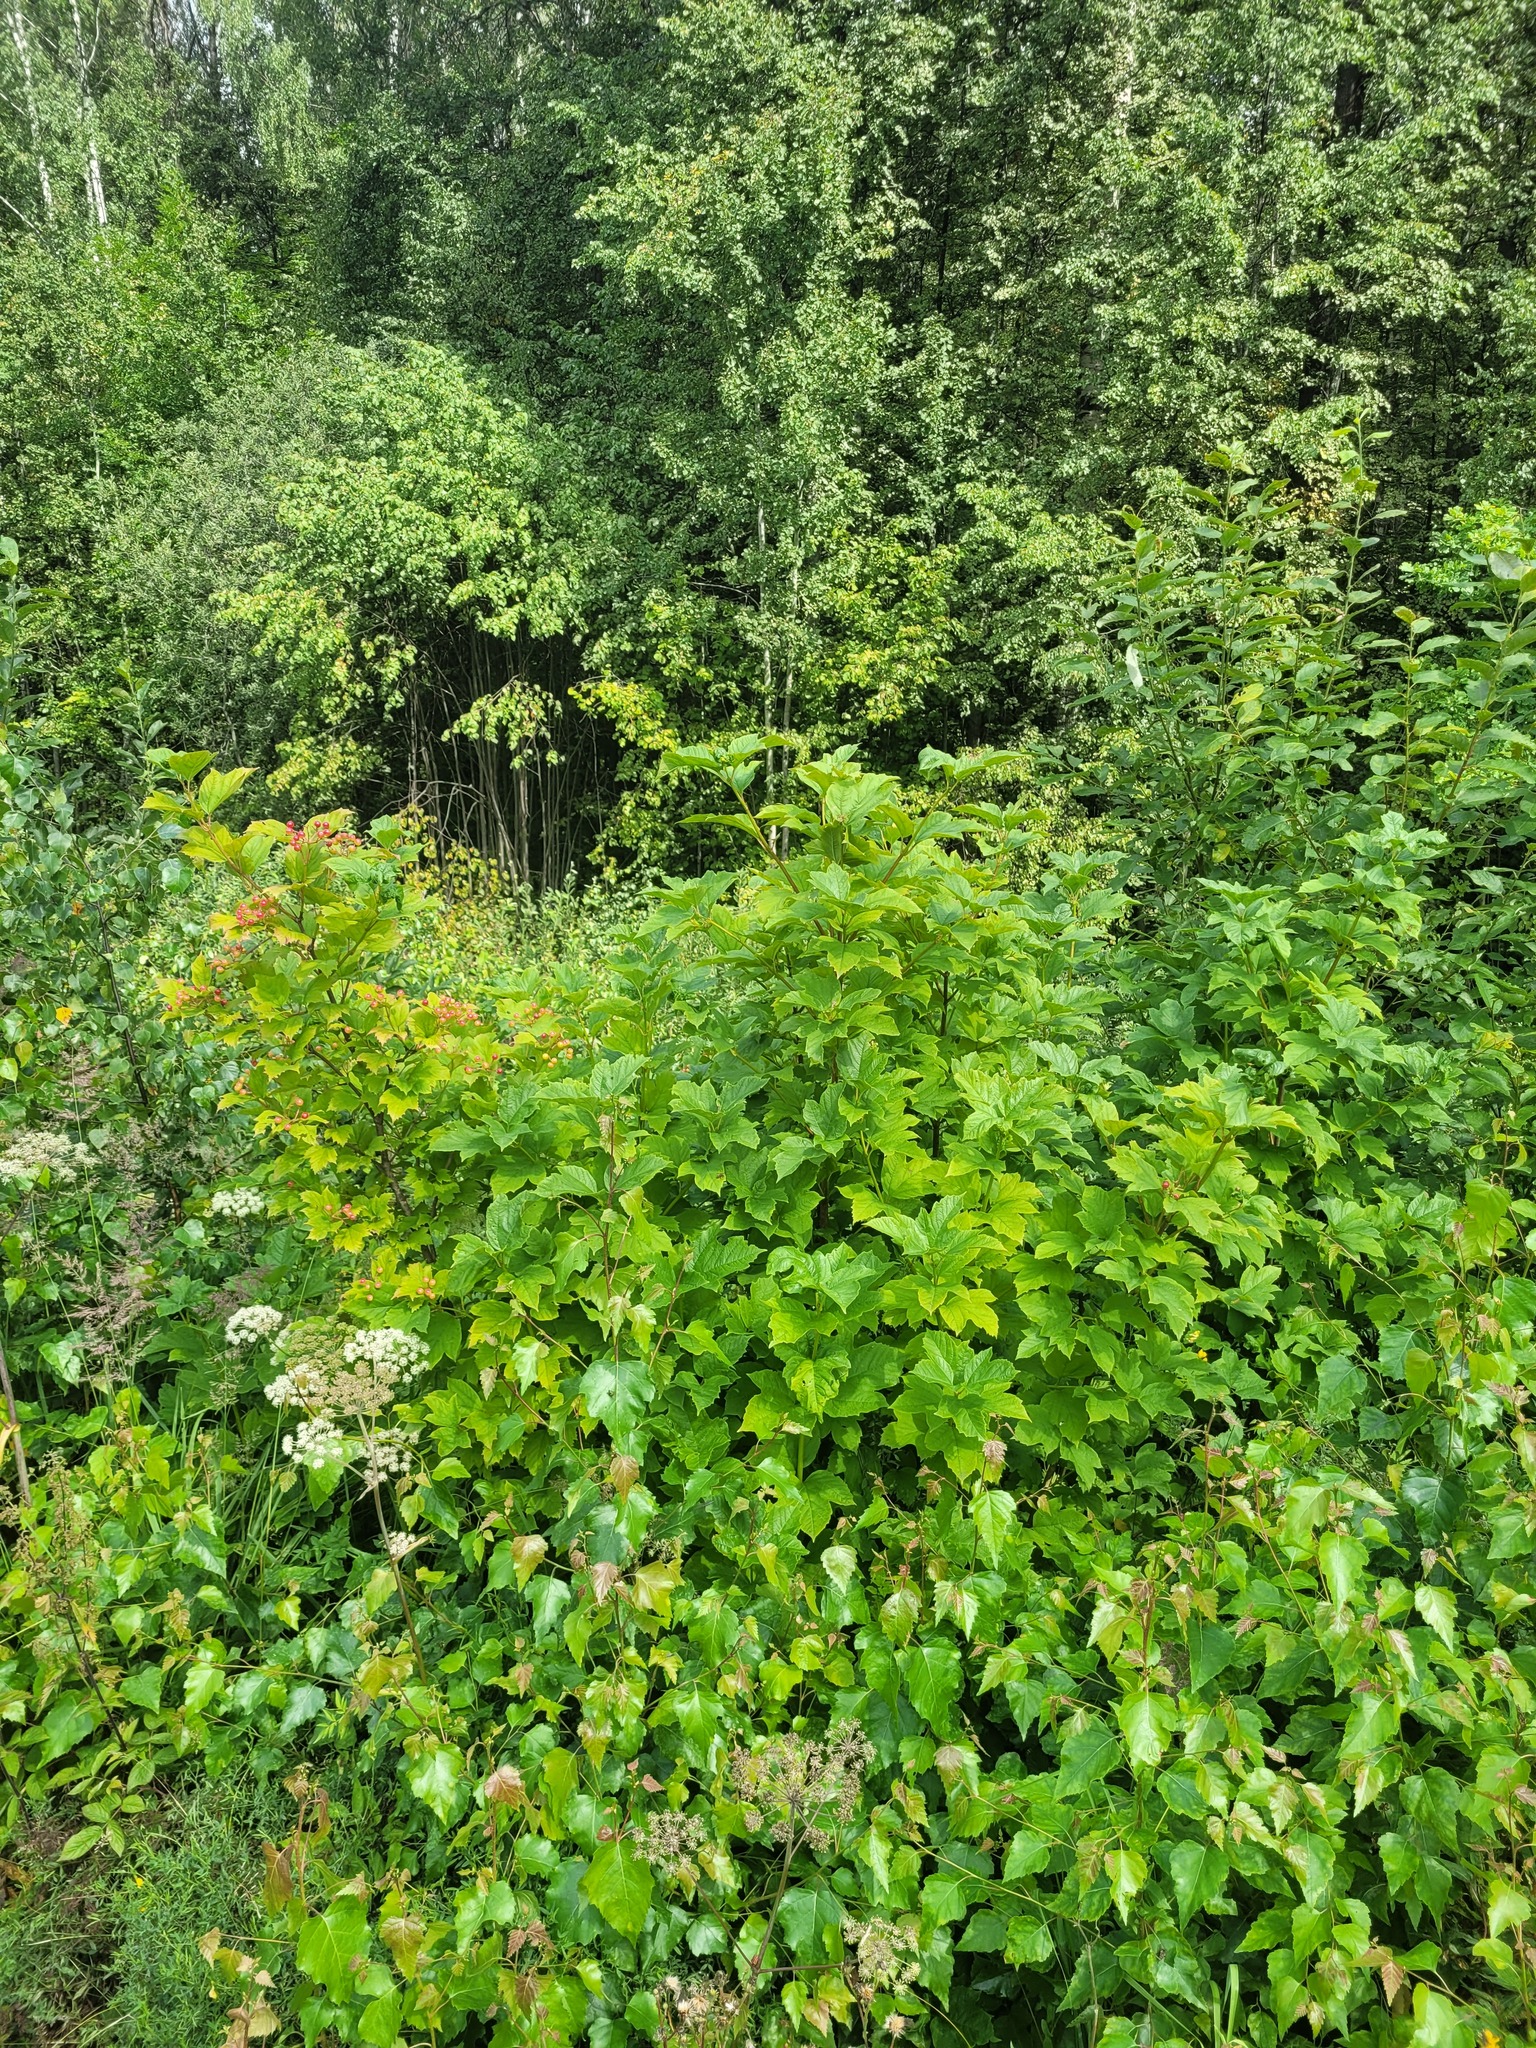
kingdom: Plantae
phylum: Tracheophyta
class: Magnoliopsida
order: Dipsacales
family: Viburnaceae
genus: Viburnum
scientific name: Viburnum opulus
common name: Guelder-rose
